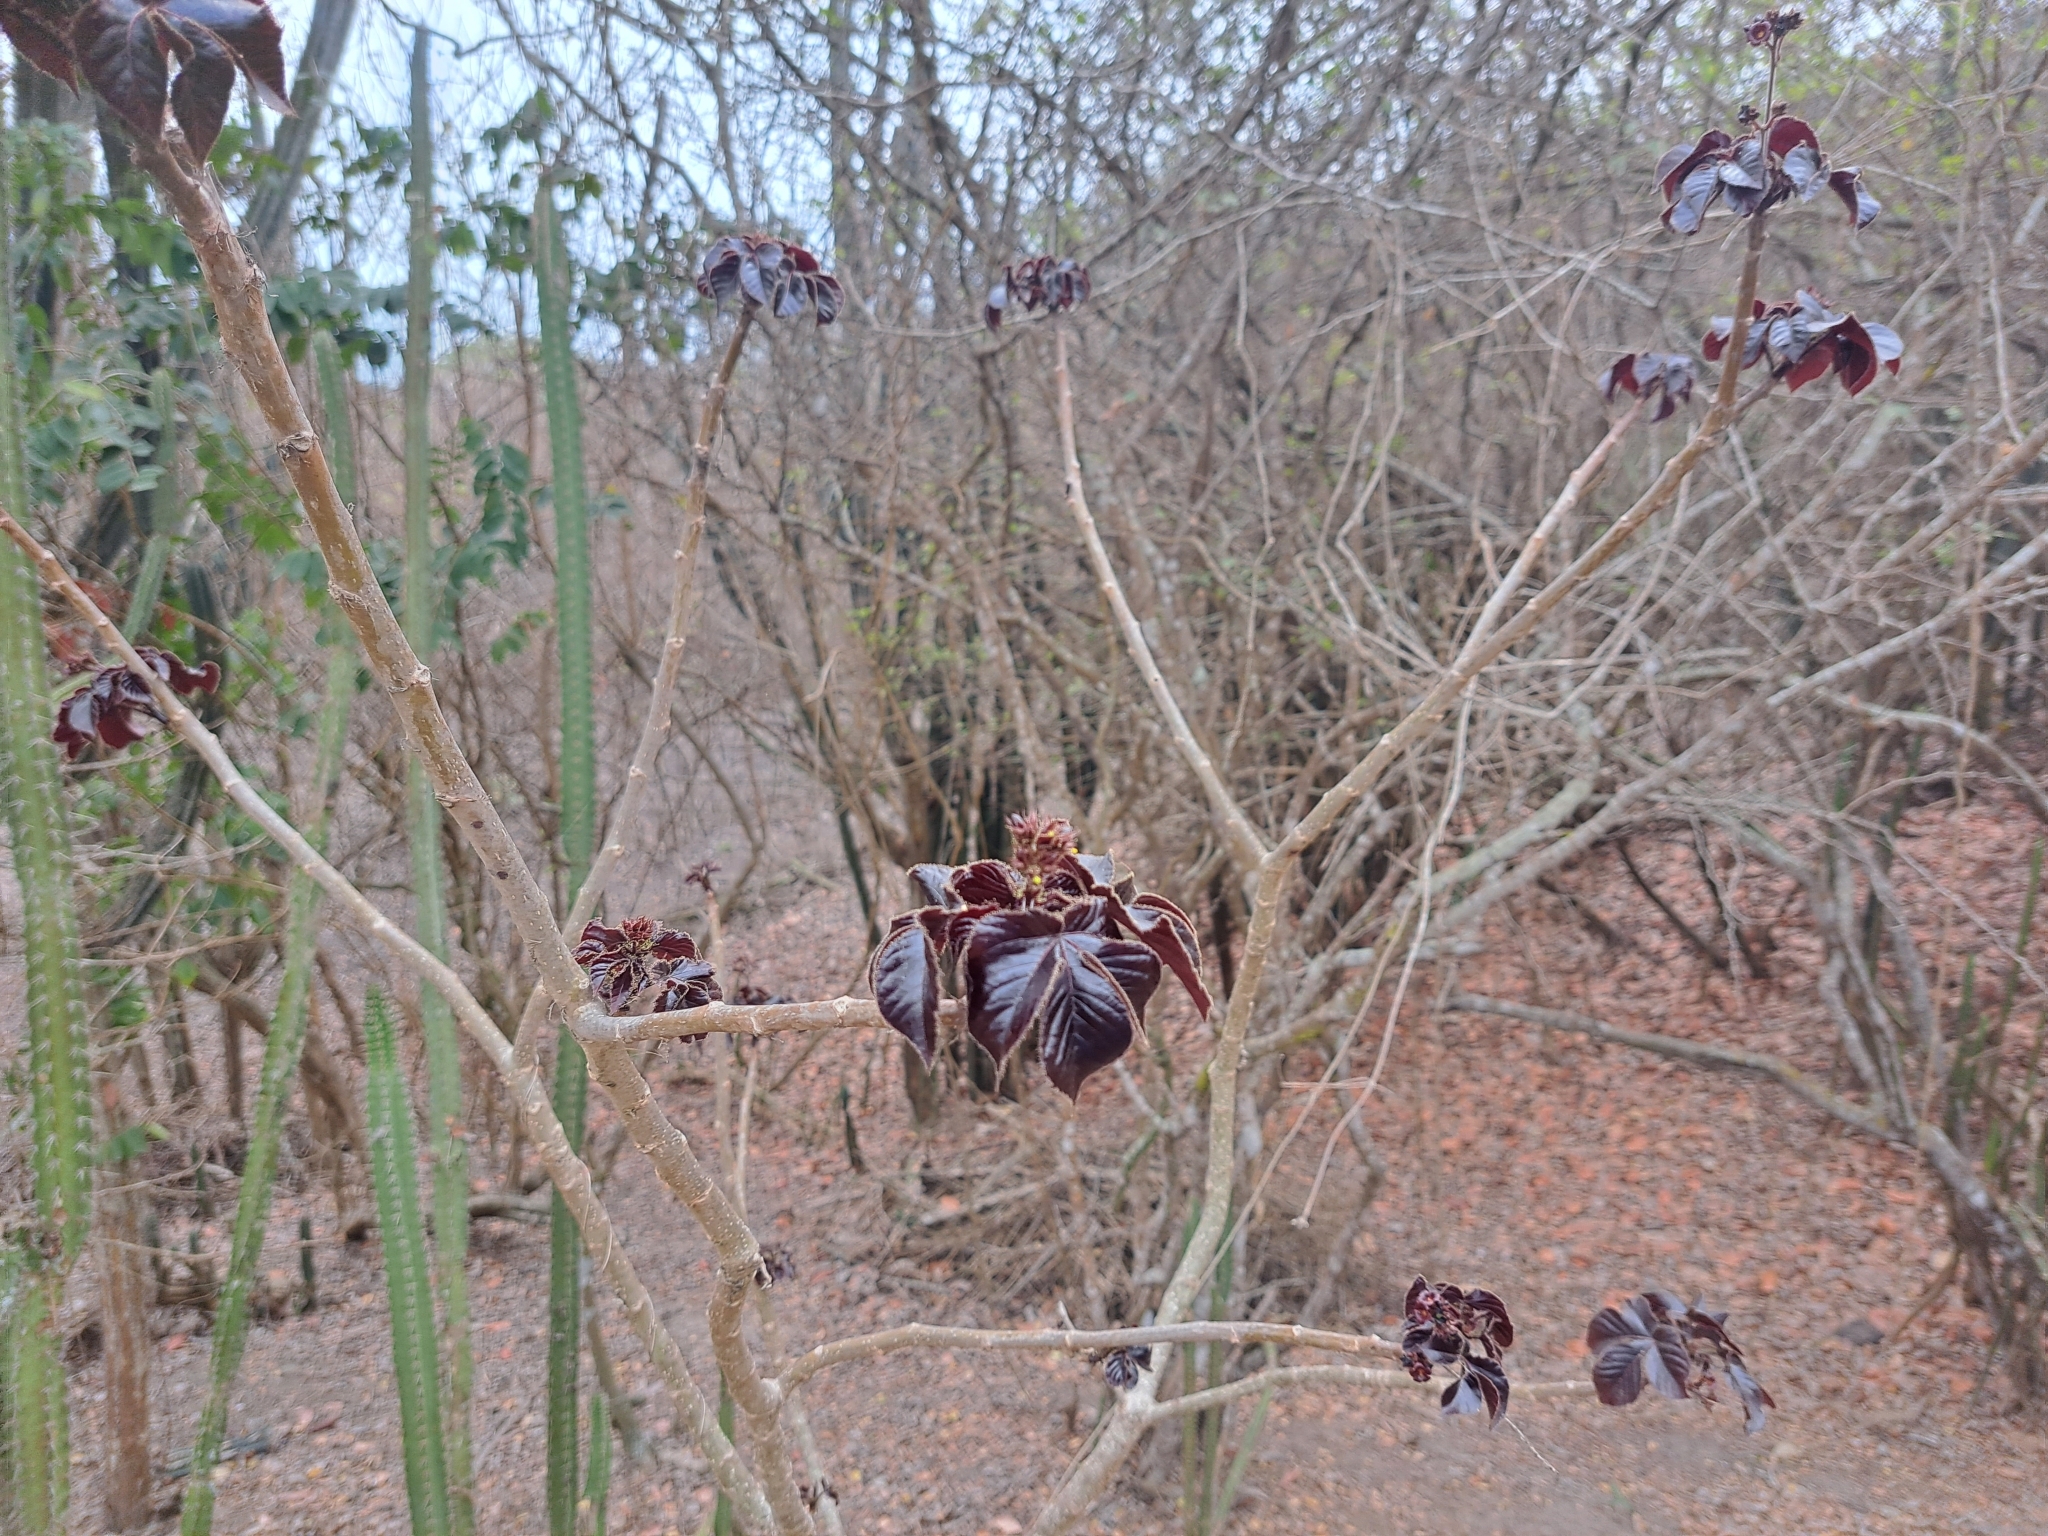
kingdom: Plantae
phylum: Tracheophyta
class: Magnoliopsida
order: Malpighiales
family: Euphorbiaceae
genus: Jatropha
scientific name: Jatropha gossypiifolia
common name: Bellyache bush
